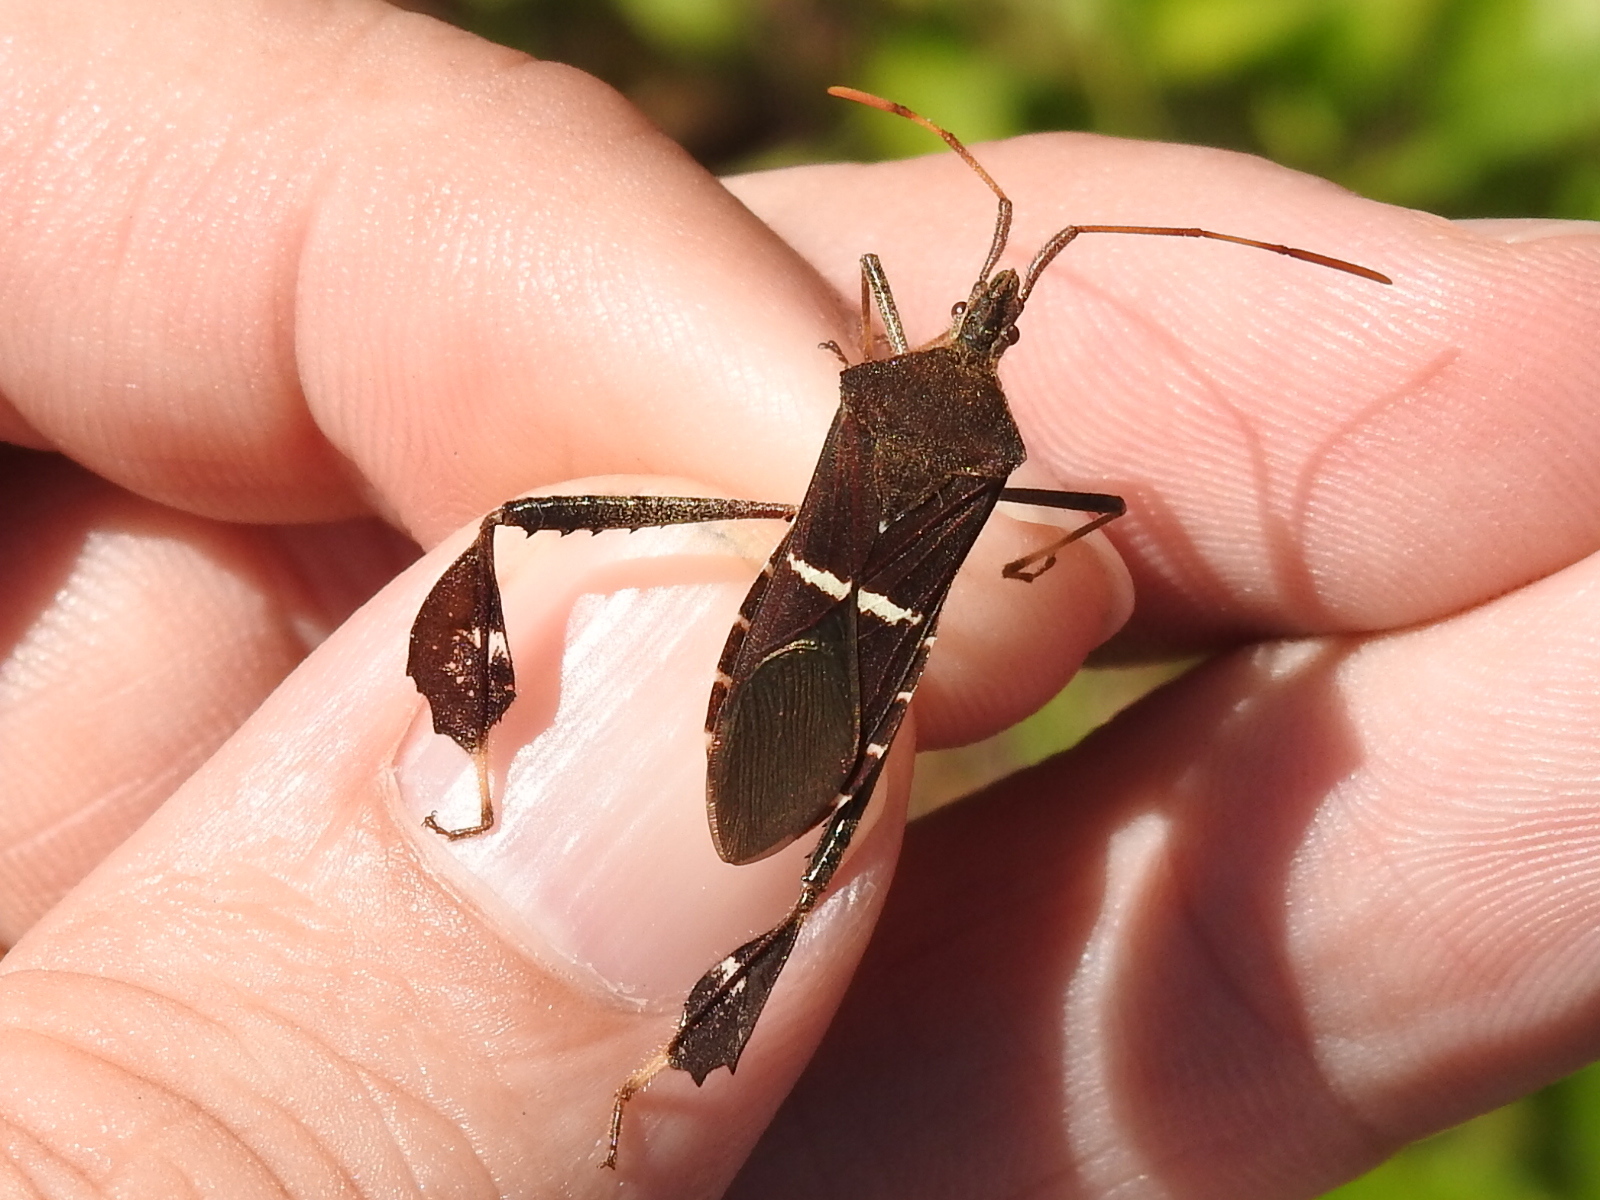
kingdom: Animalia
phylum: Arthropoda
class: Insecta
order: Hemiptera
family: Coreidae
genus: Leptoglossus
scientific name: Leptoglossus phyllopus
